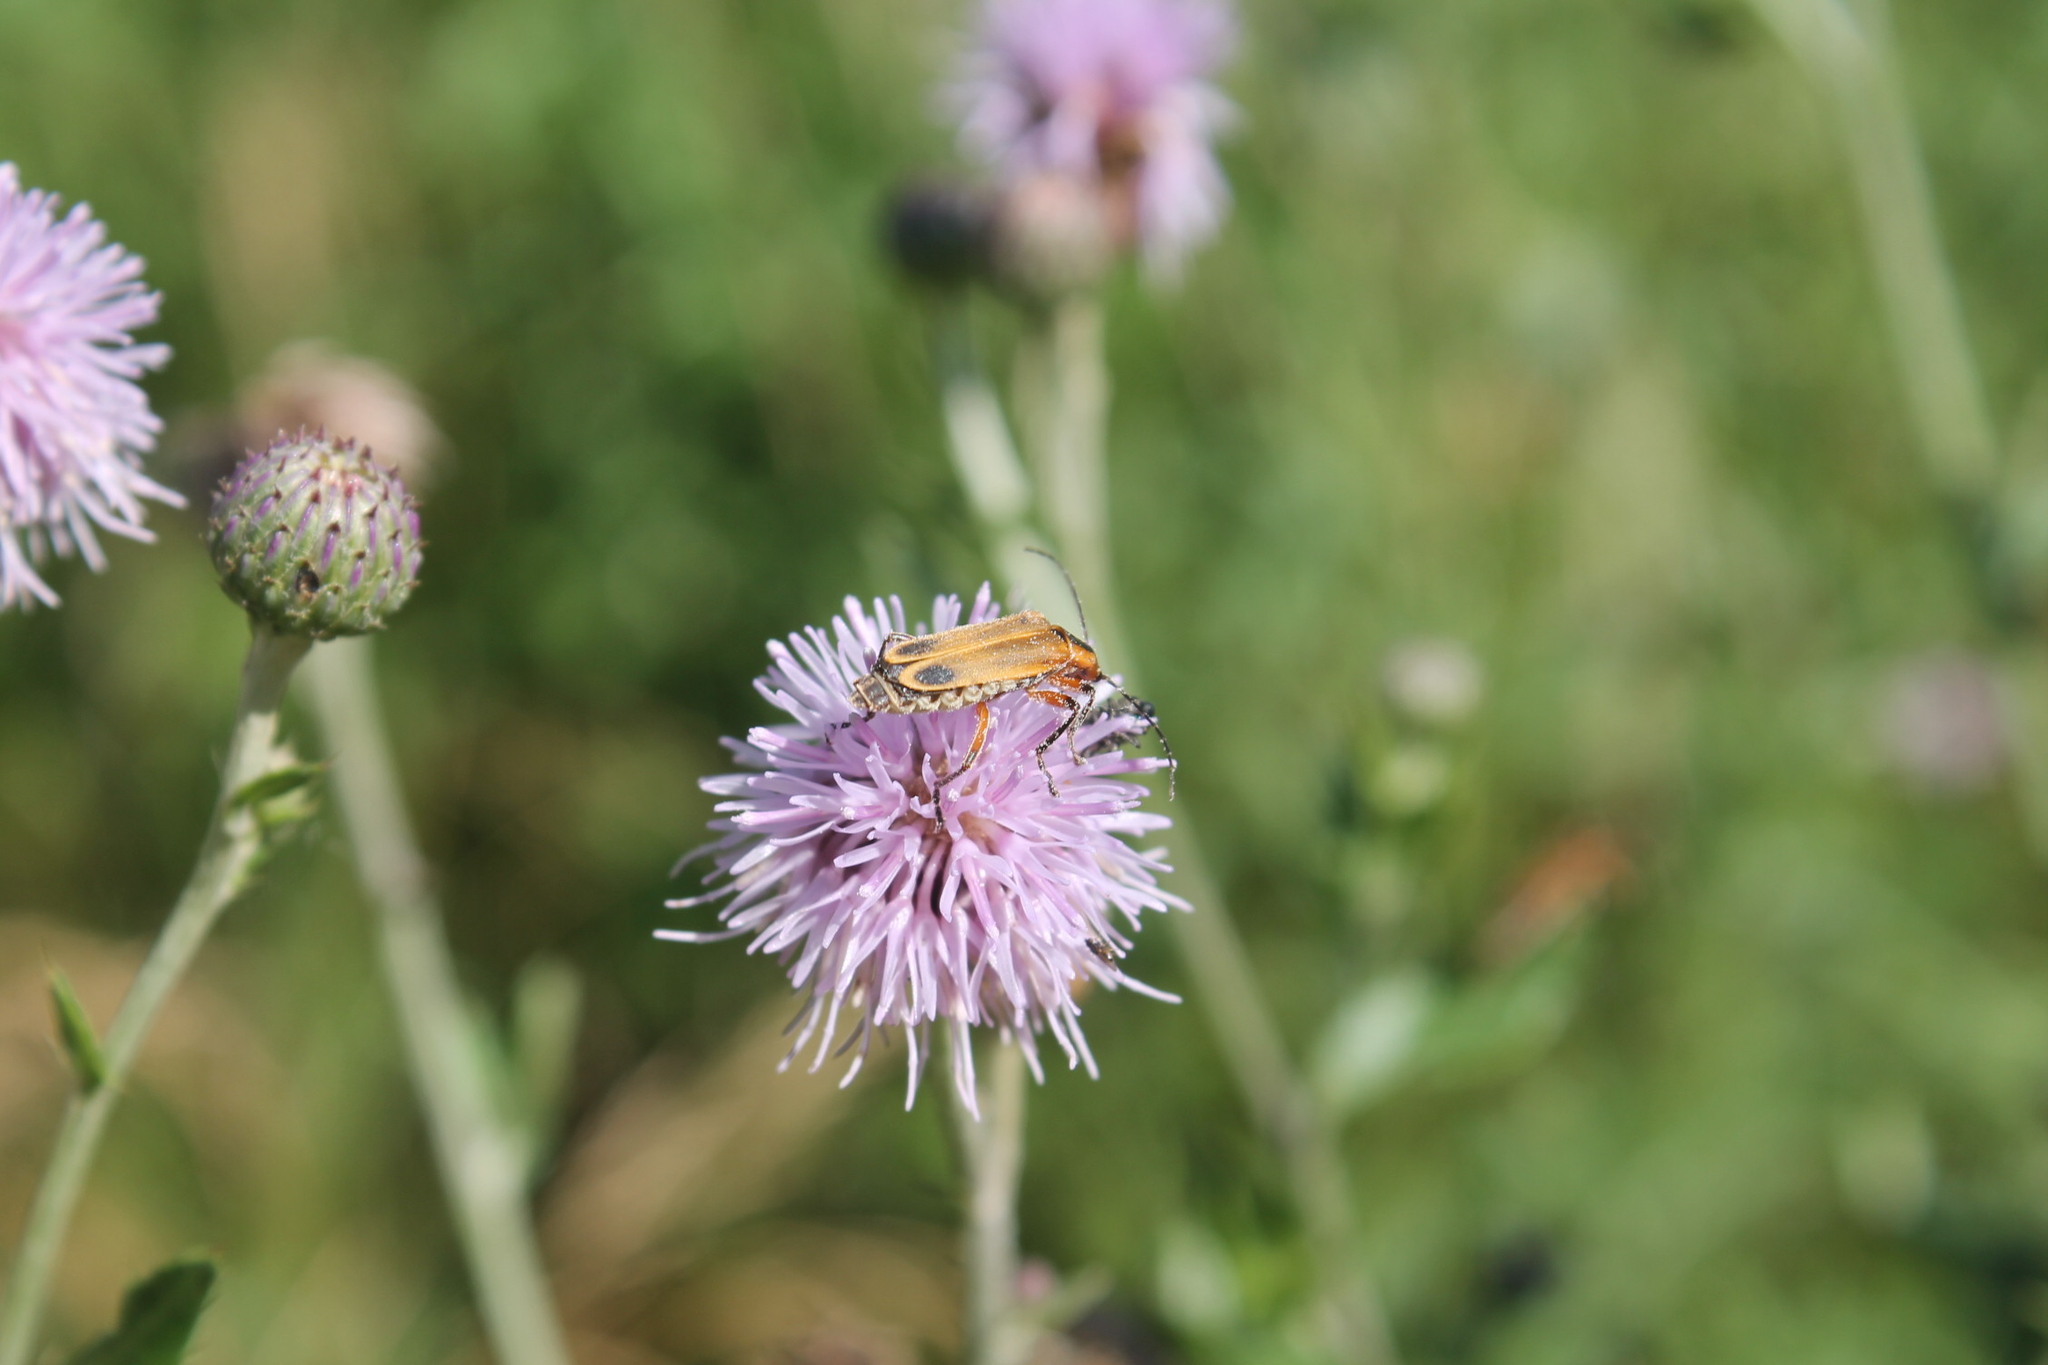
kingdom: Animalia
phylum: Arthropoda
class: Insecta
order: Coleoptera
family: Cantharidae
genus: Chauliognathus
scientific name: Chauliognathus marginatus
